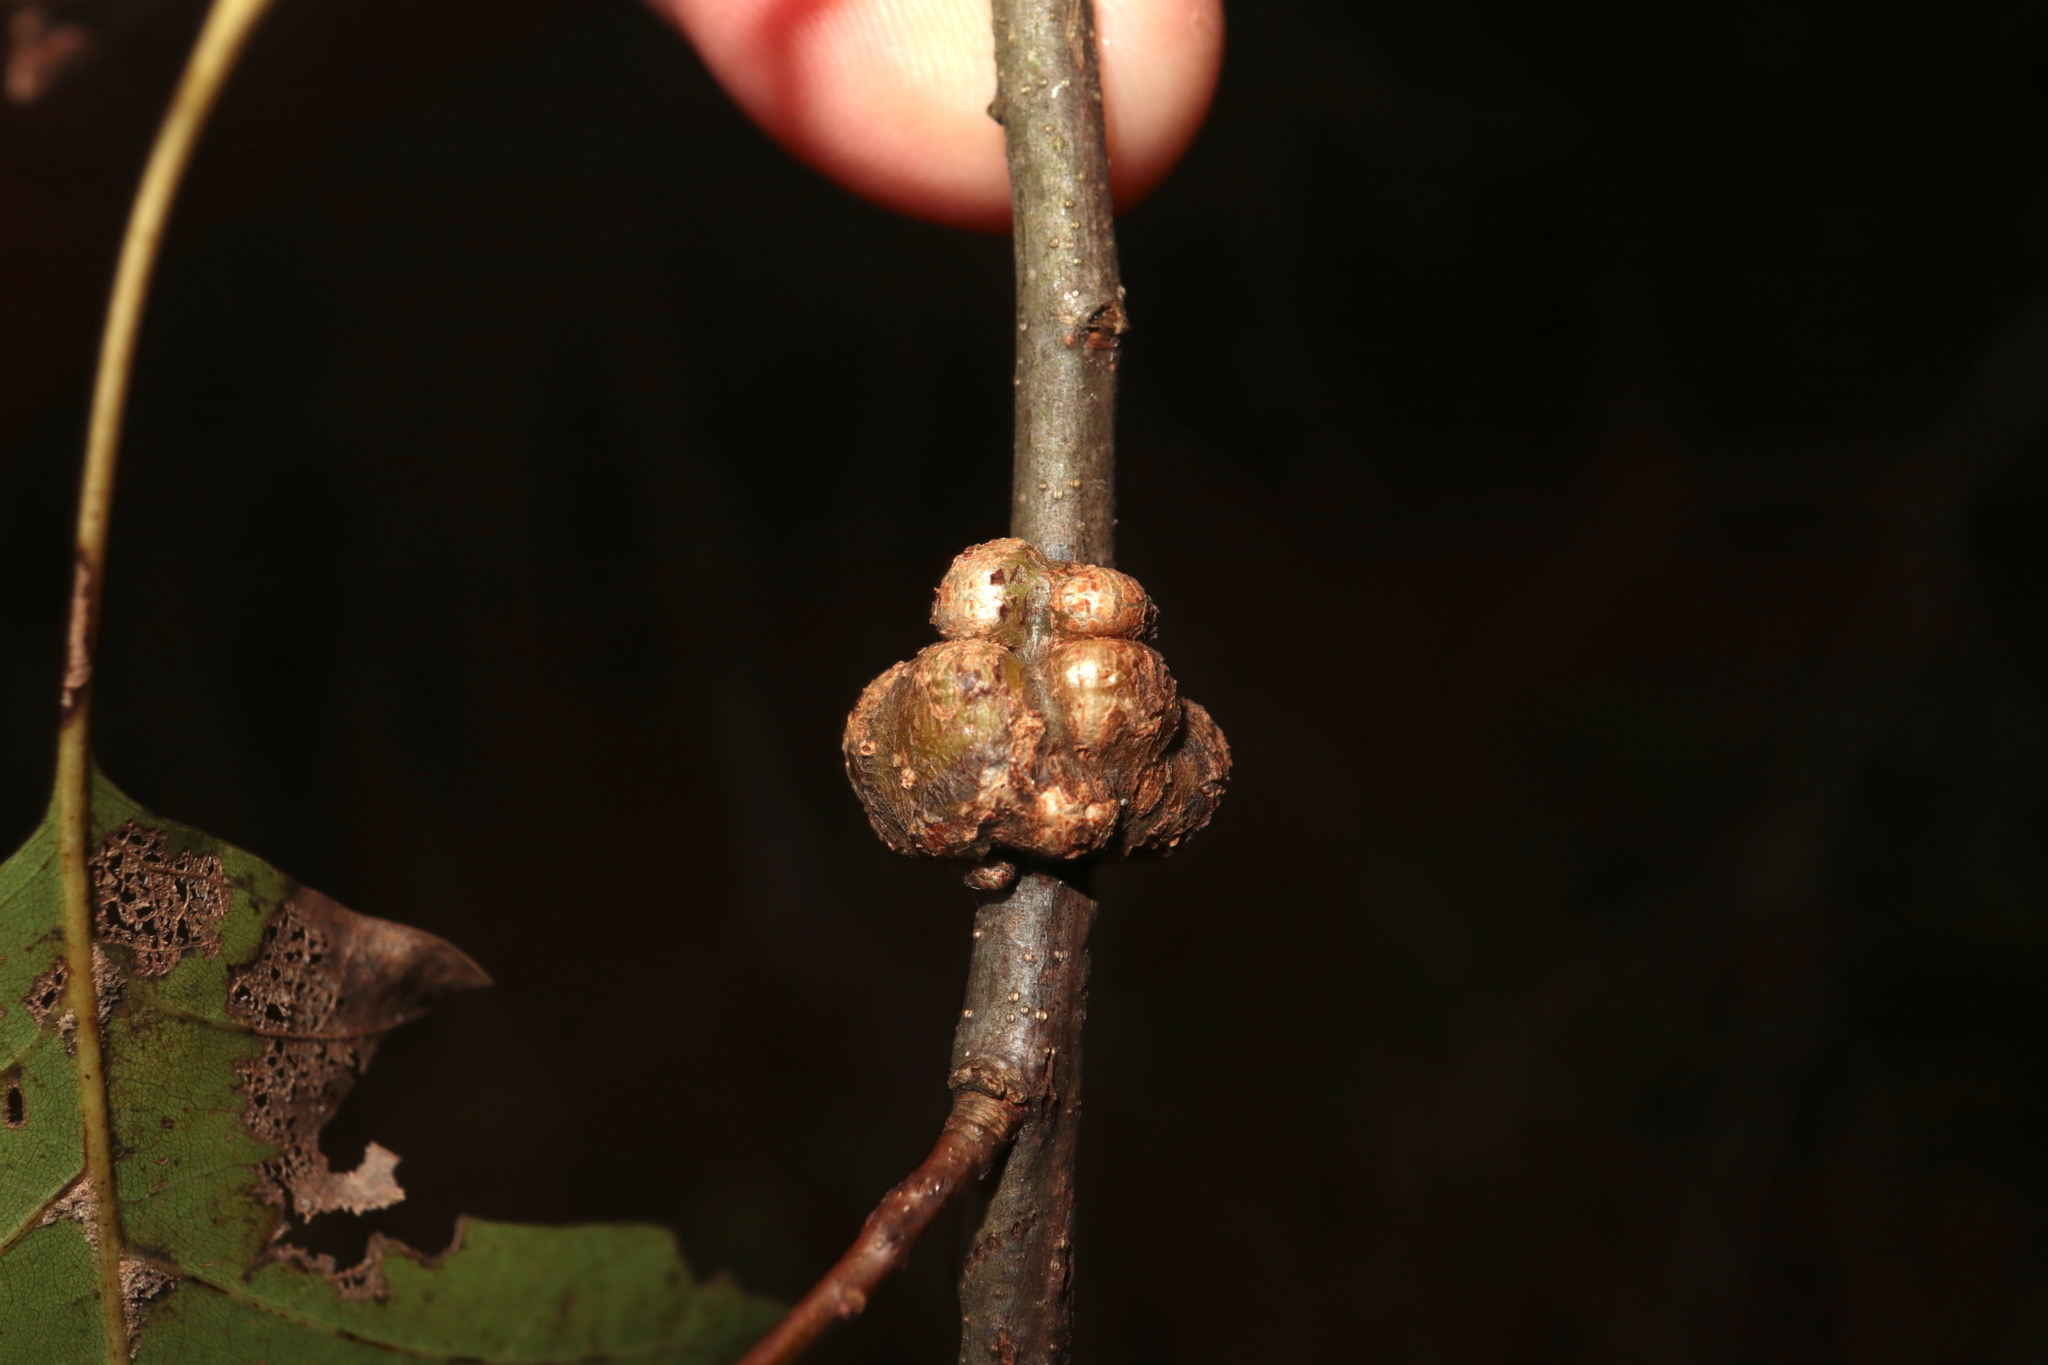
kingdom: Animalia
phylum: Arthropoda
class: Insecta
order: Hymenoptera
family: Cynipidae
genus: Callirhytis
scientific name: Callirhytis
